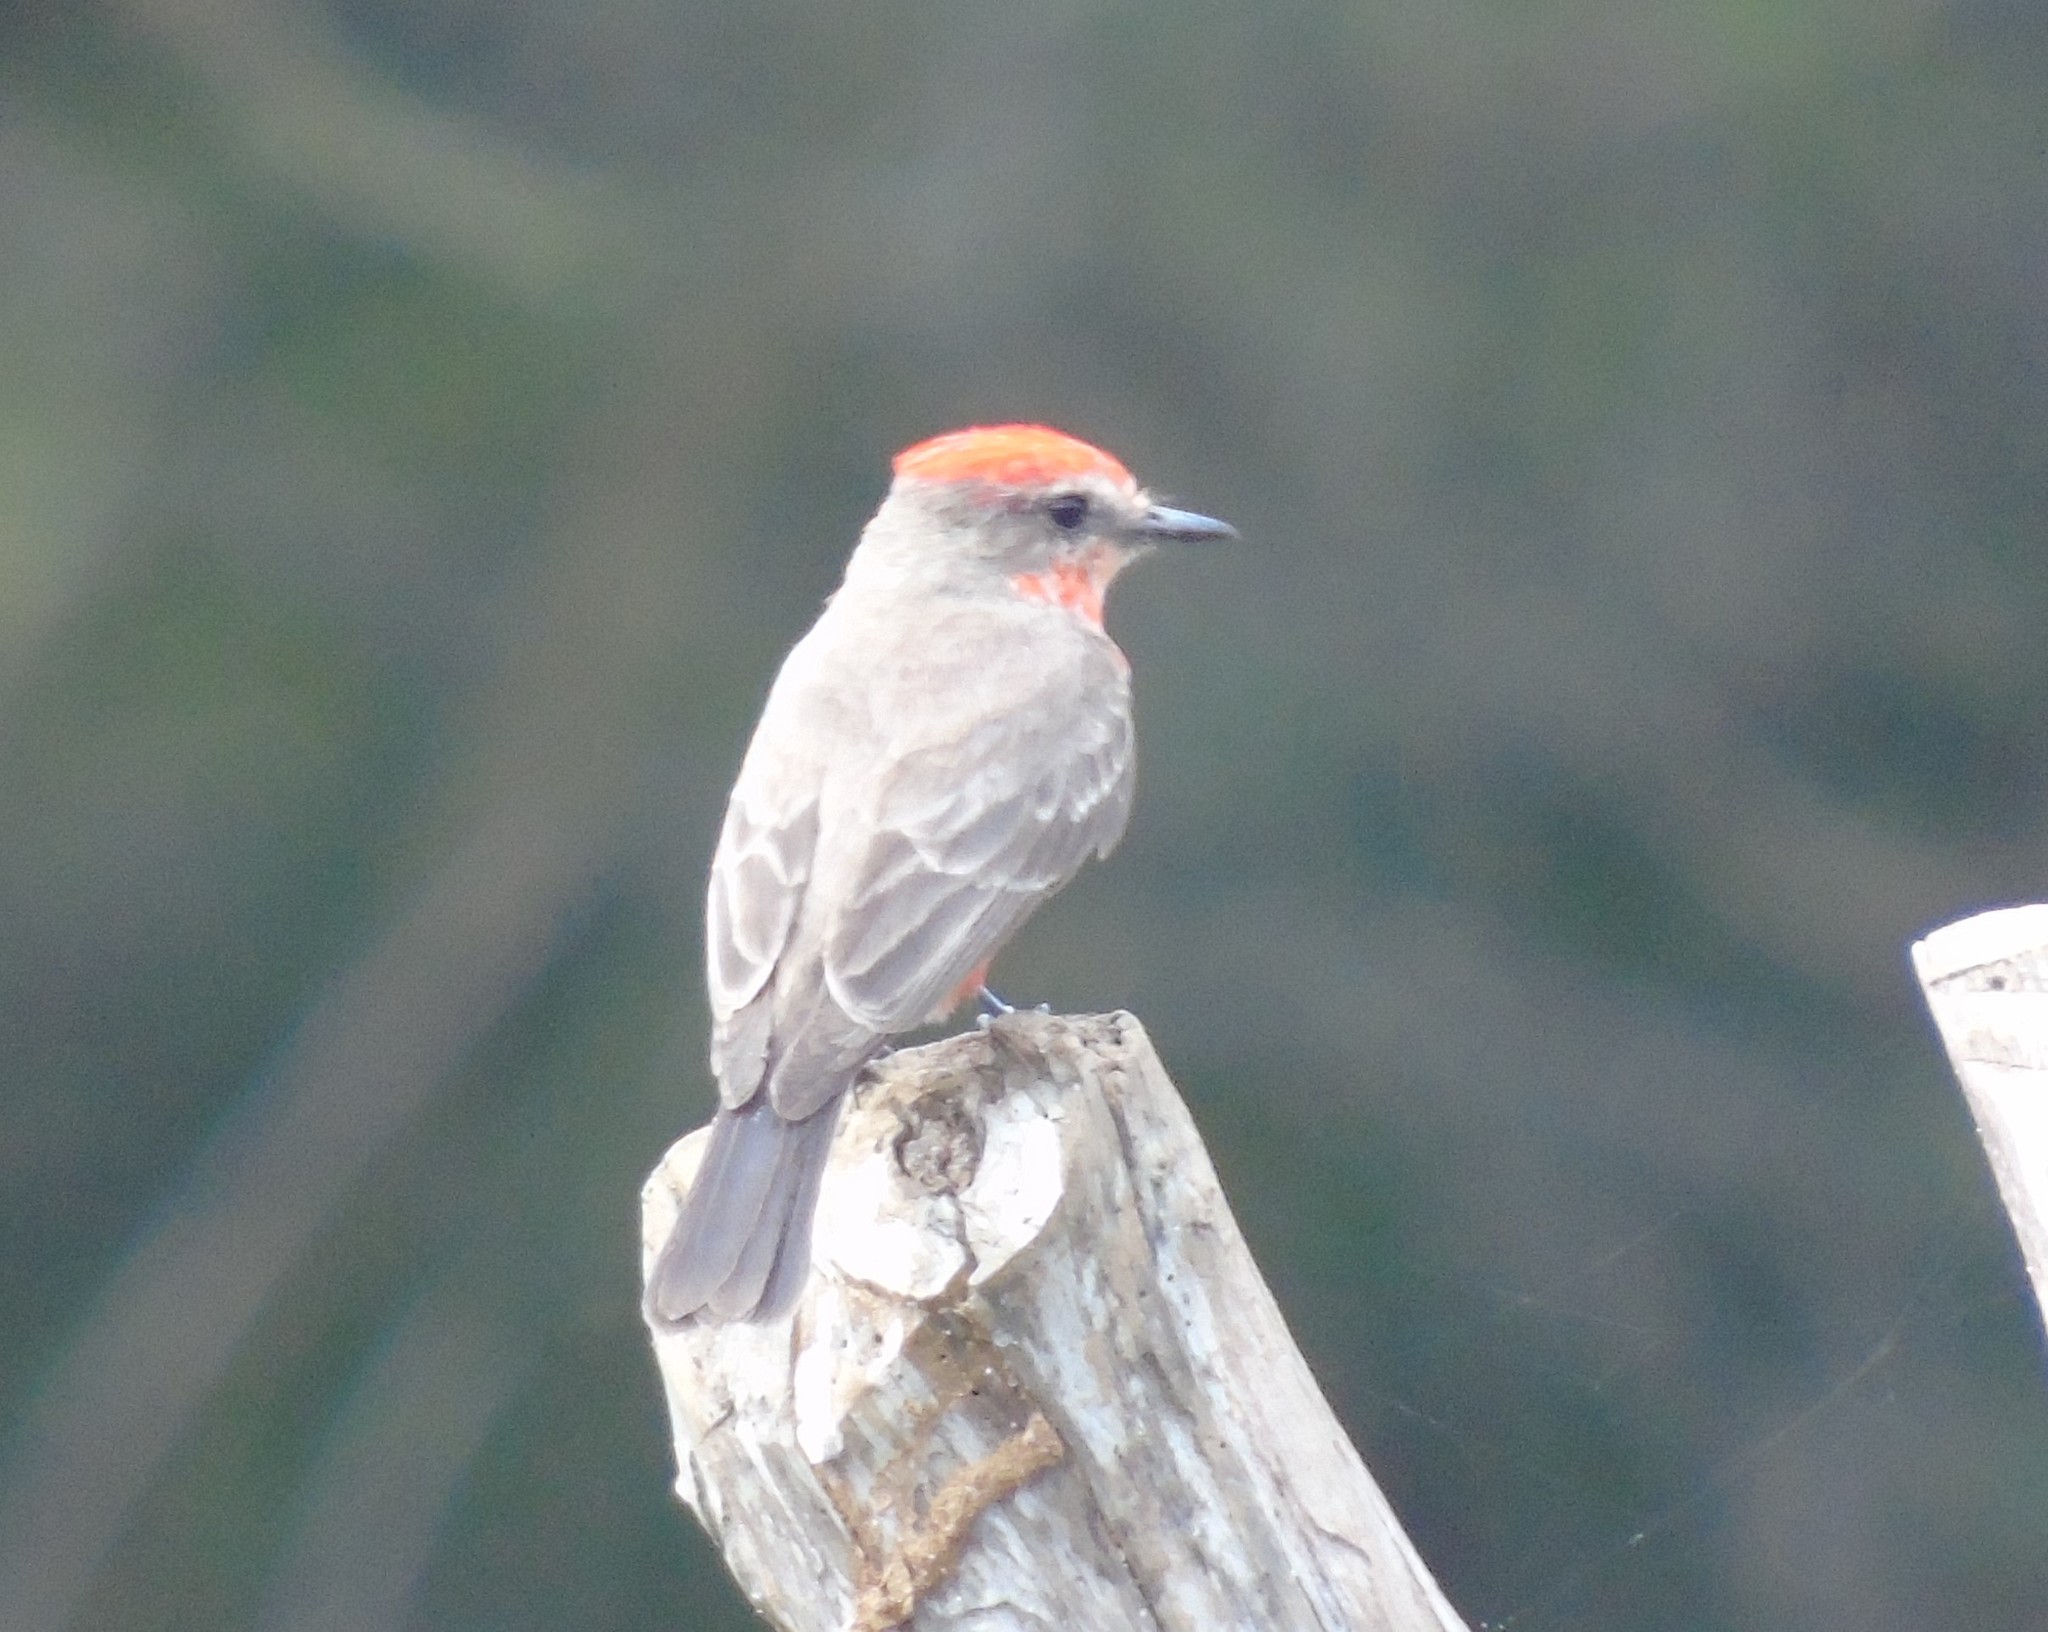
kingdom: Animalia
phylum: Chordata
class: Aves
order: Passeriformes
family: Tyrannidae
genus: Pyrocephalus
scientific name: Pyrocephalus rubinus
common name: Vermilion flycatcher
